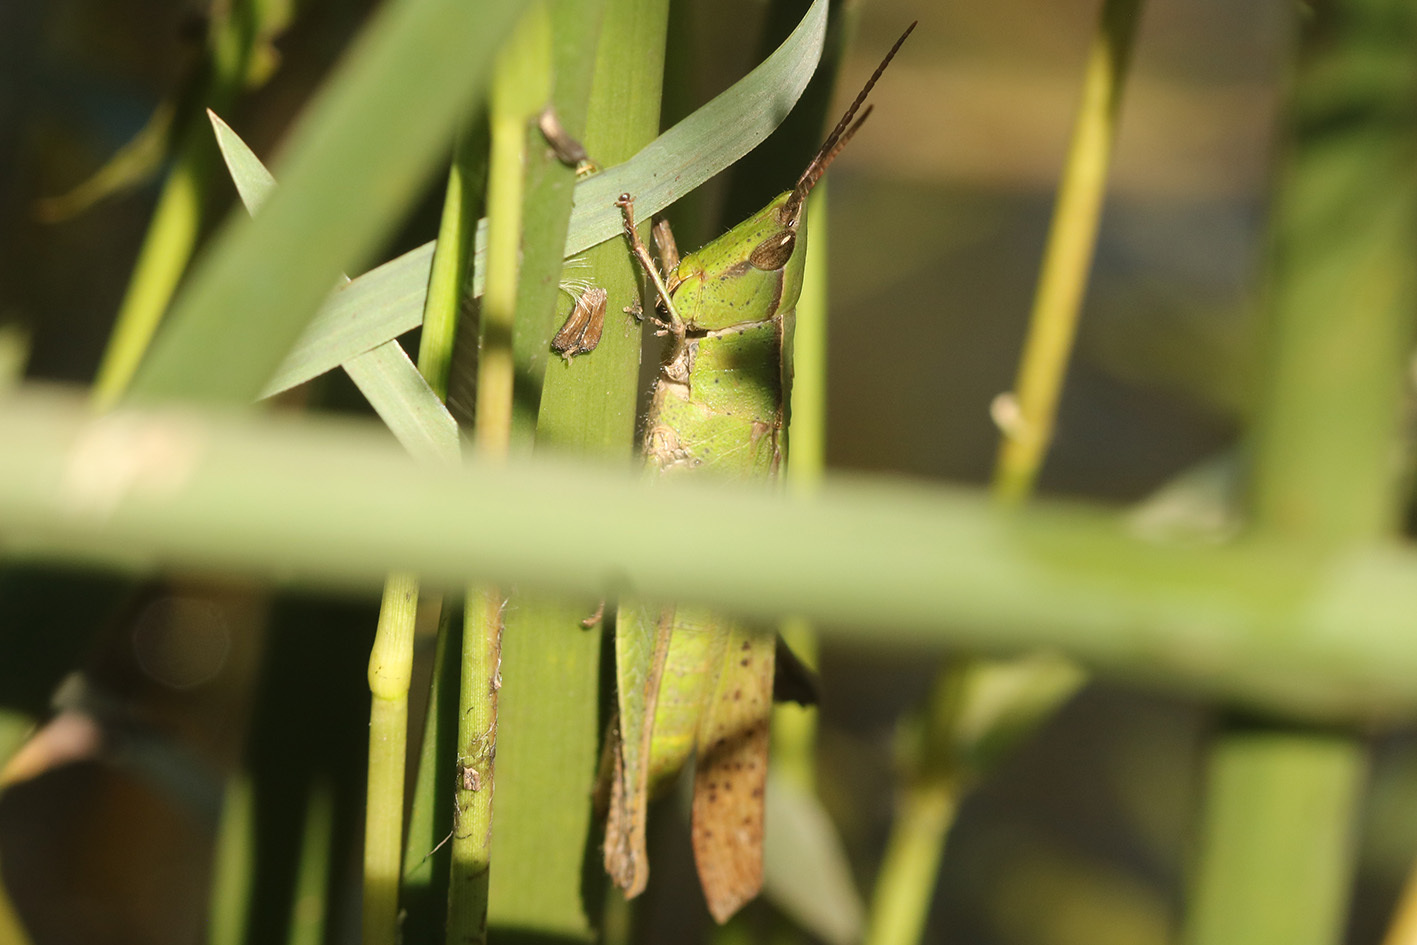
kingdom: Animalia
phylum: Arthropoda
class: Insecta
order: Orthoptera
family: Acrididae
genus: Metaleptea
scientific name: Metaleptea adspersa
